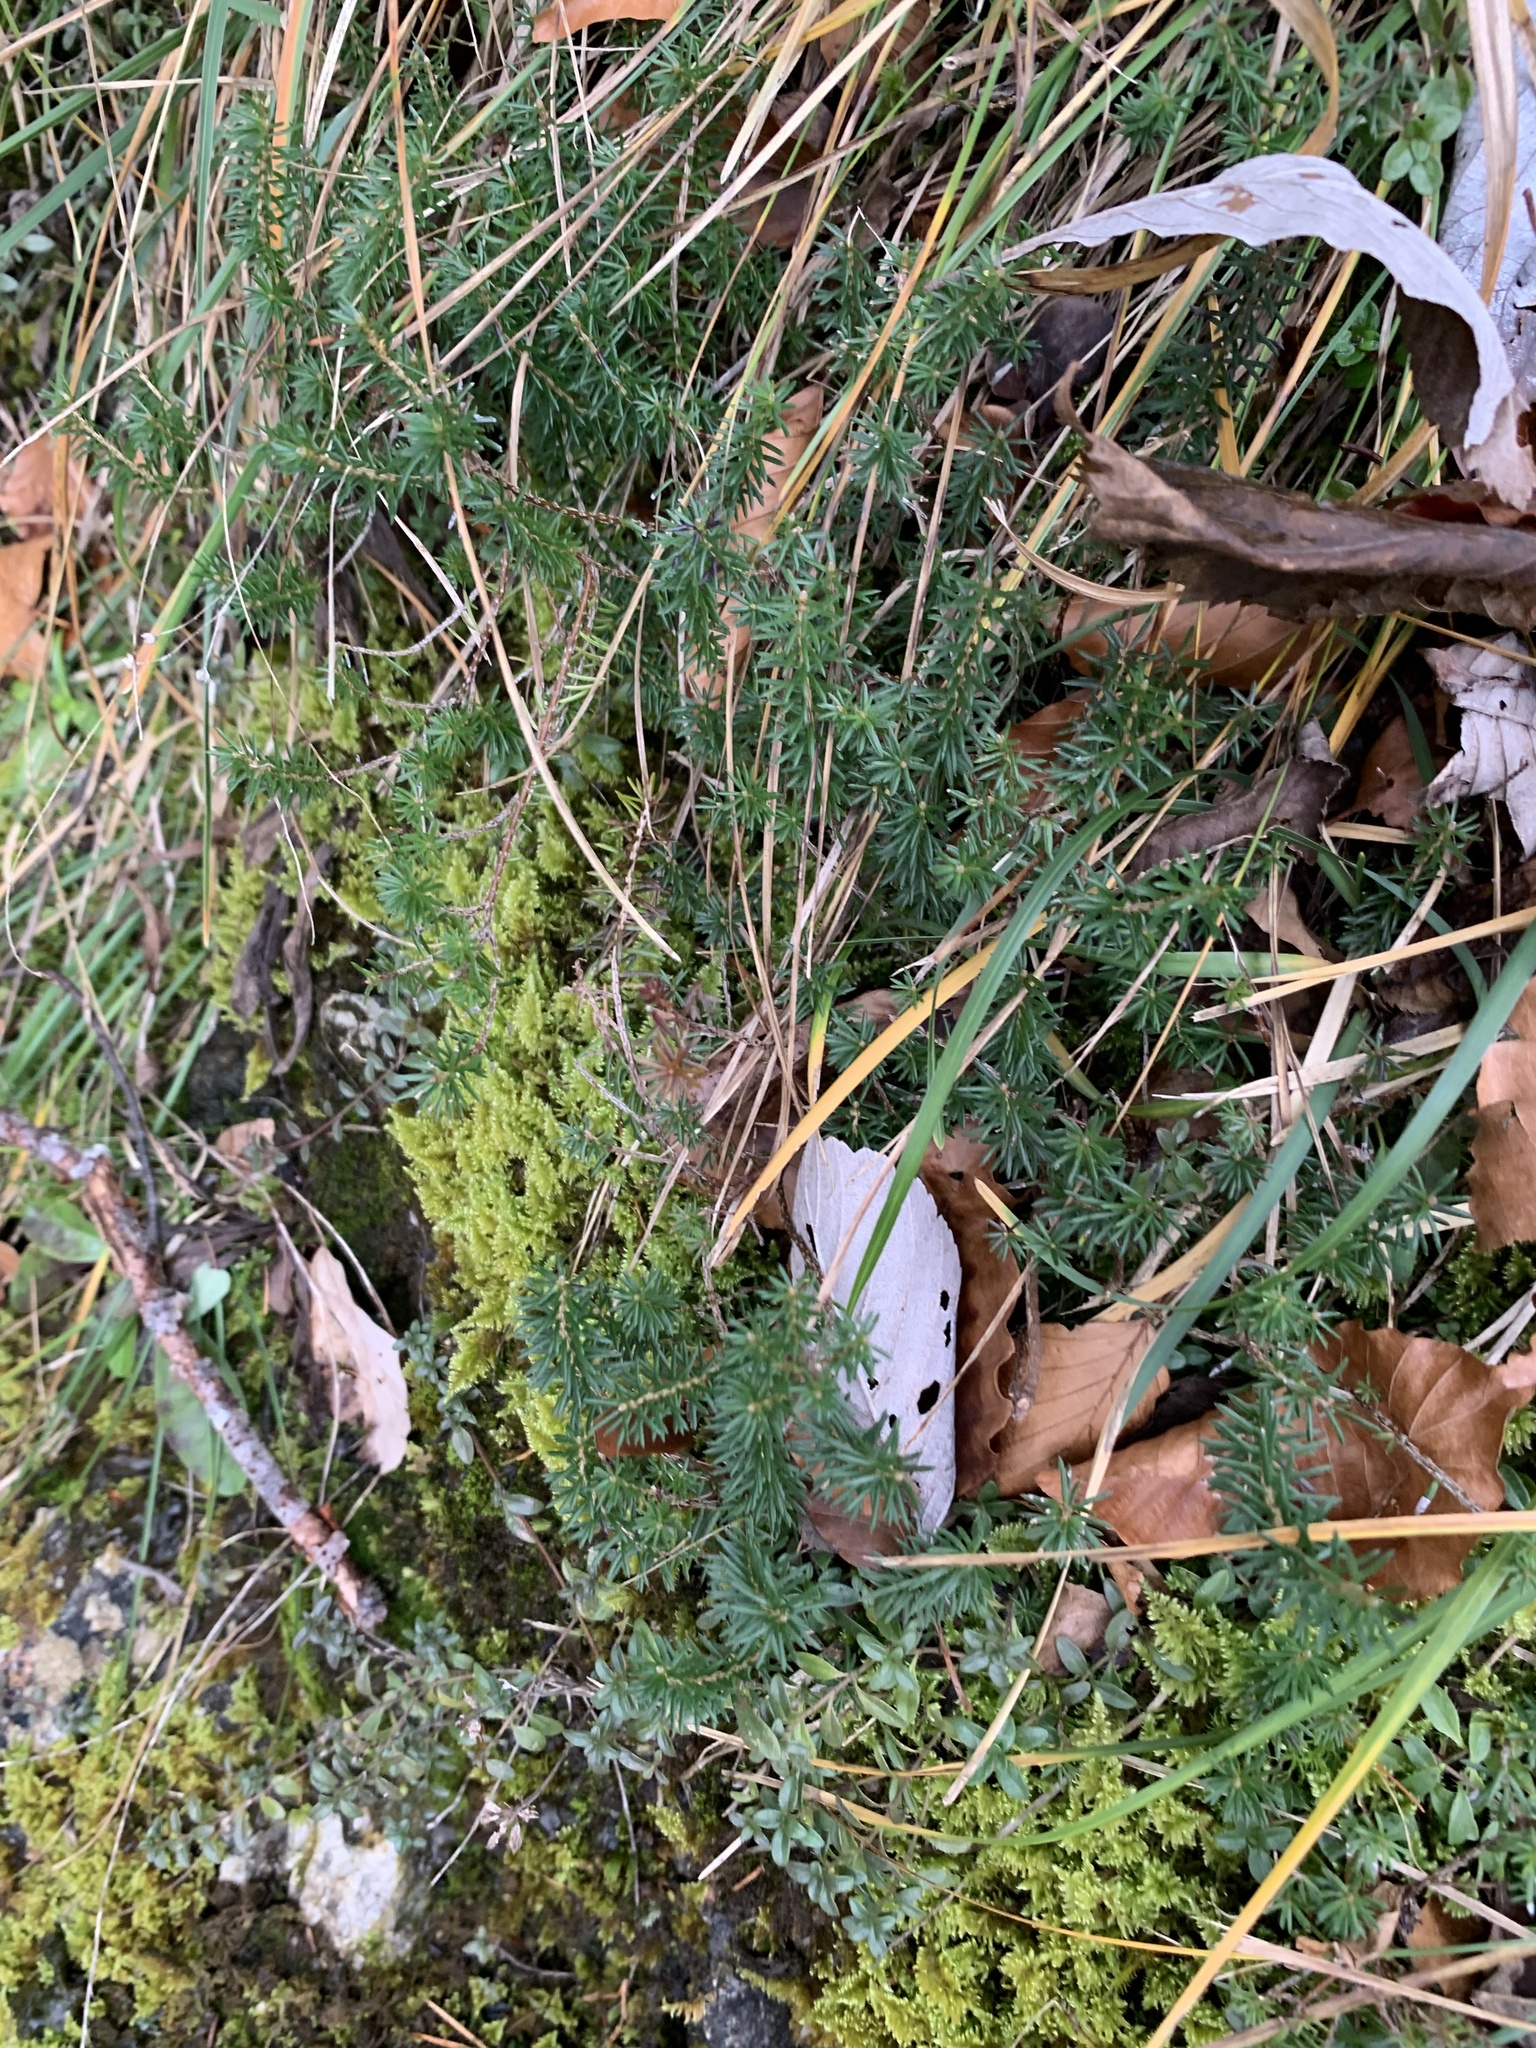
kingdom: Plantae
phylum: Tracheophyta
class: Magnoliopsida
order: Ericales
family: Ericaceae
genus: Erica
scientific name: Erica carnea
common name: Winter heath
